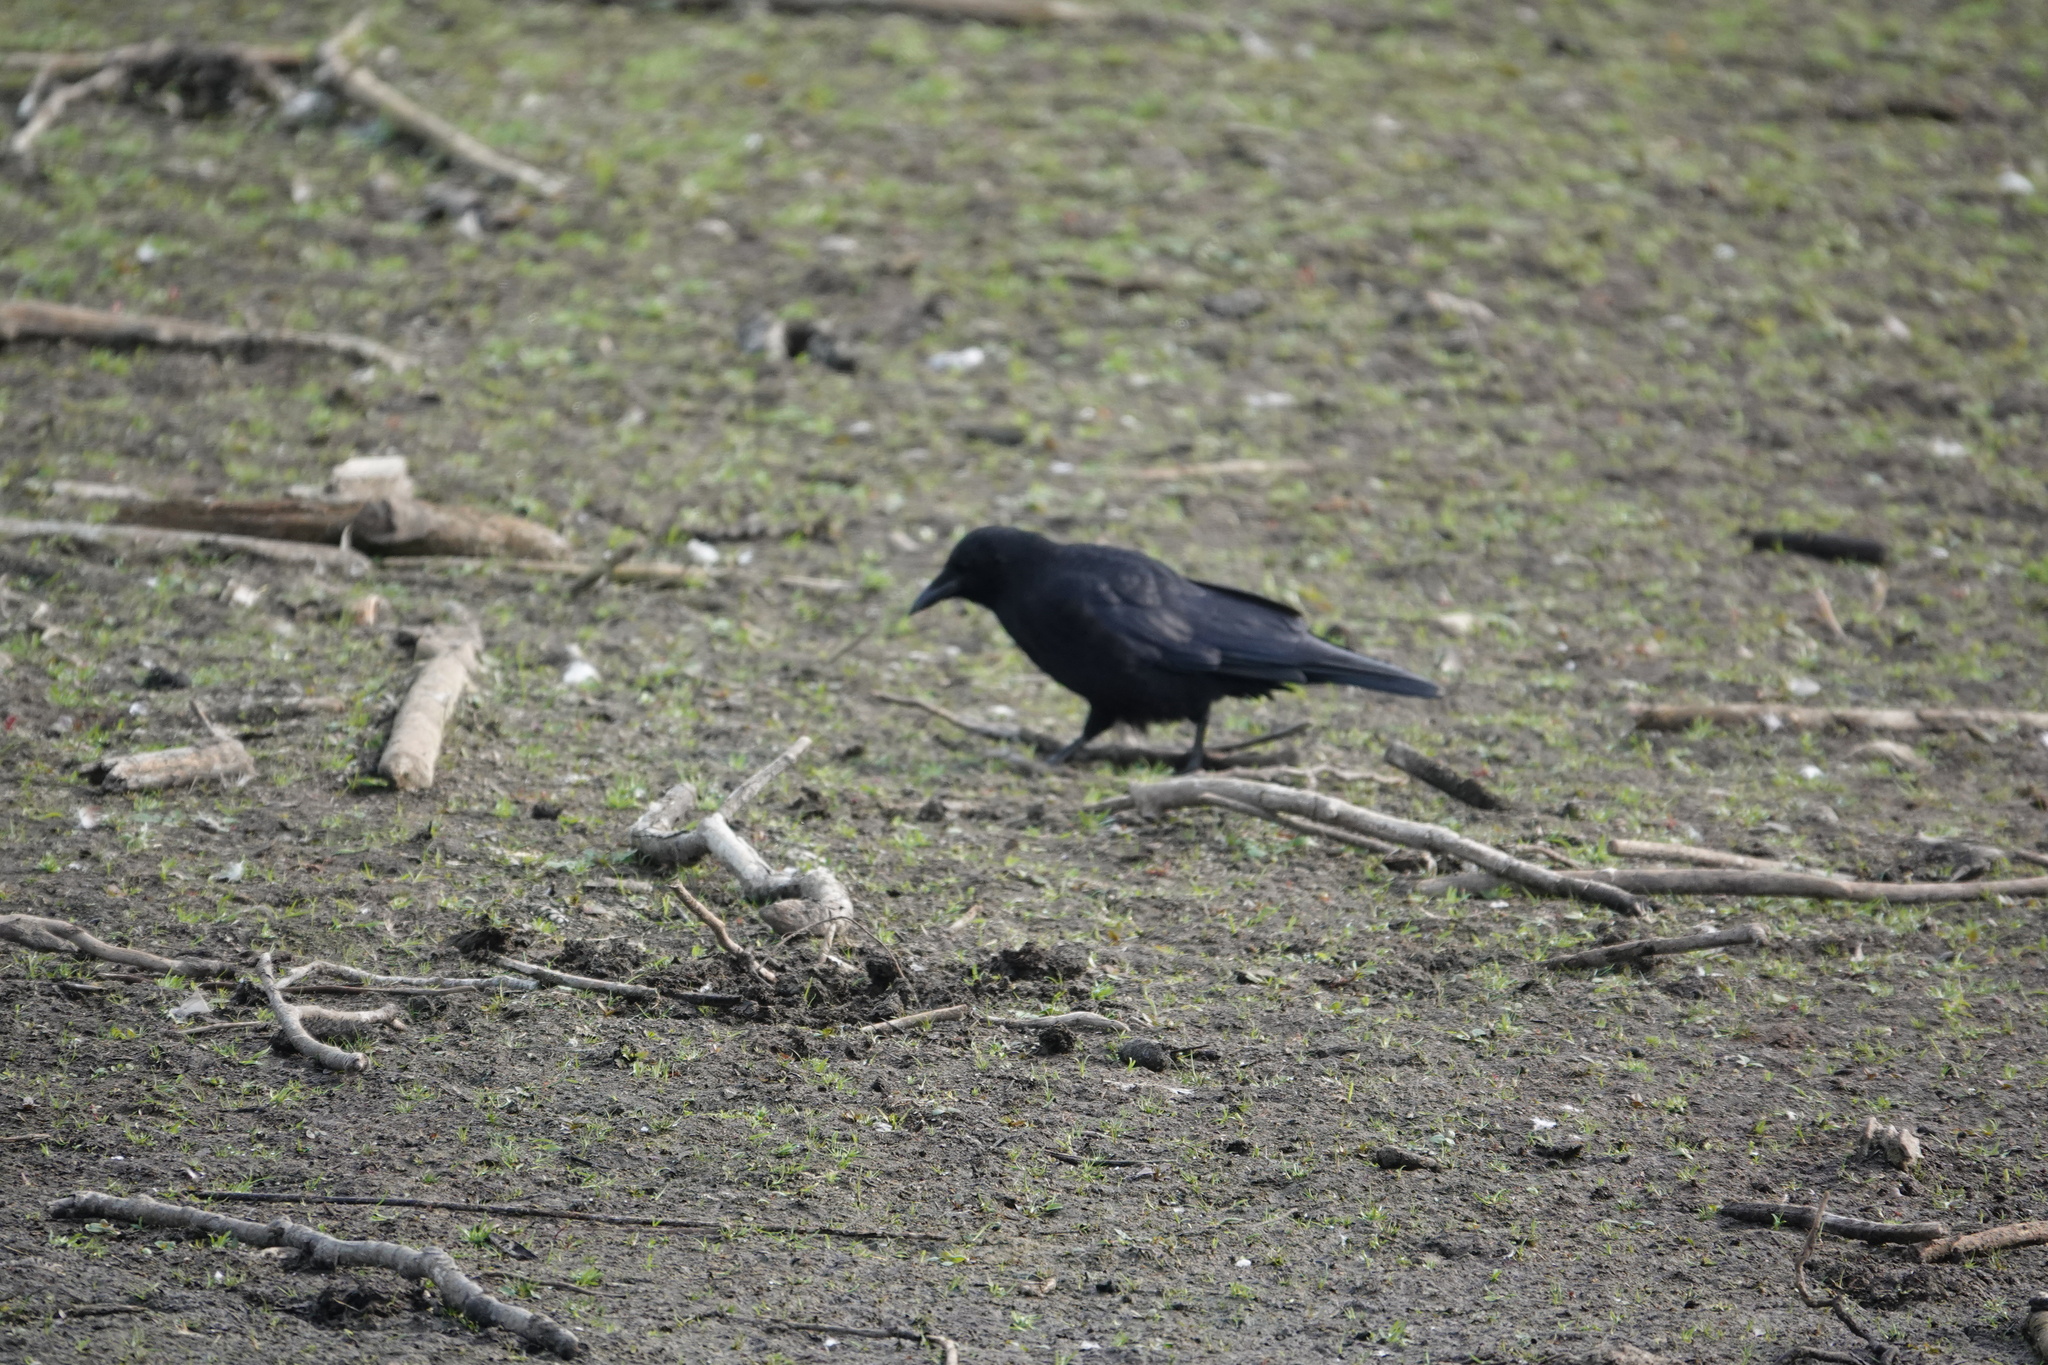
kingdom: Animalia
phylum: Chordata
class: Aves
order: Passeriformes
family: Corvidae
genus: Corvus
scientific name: Corvus brachyrhynchos
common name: American crow
